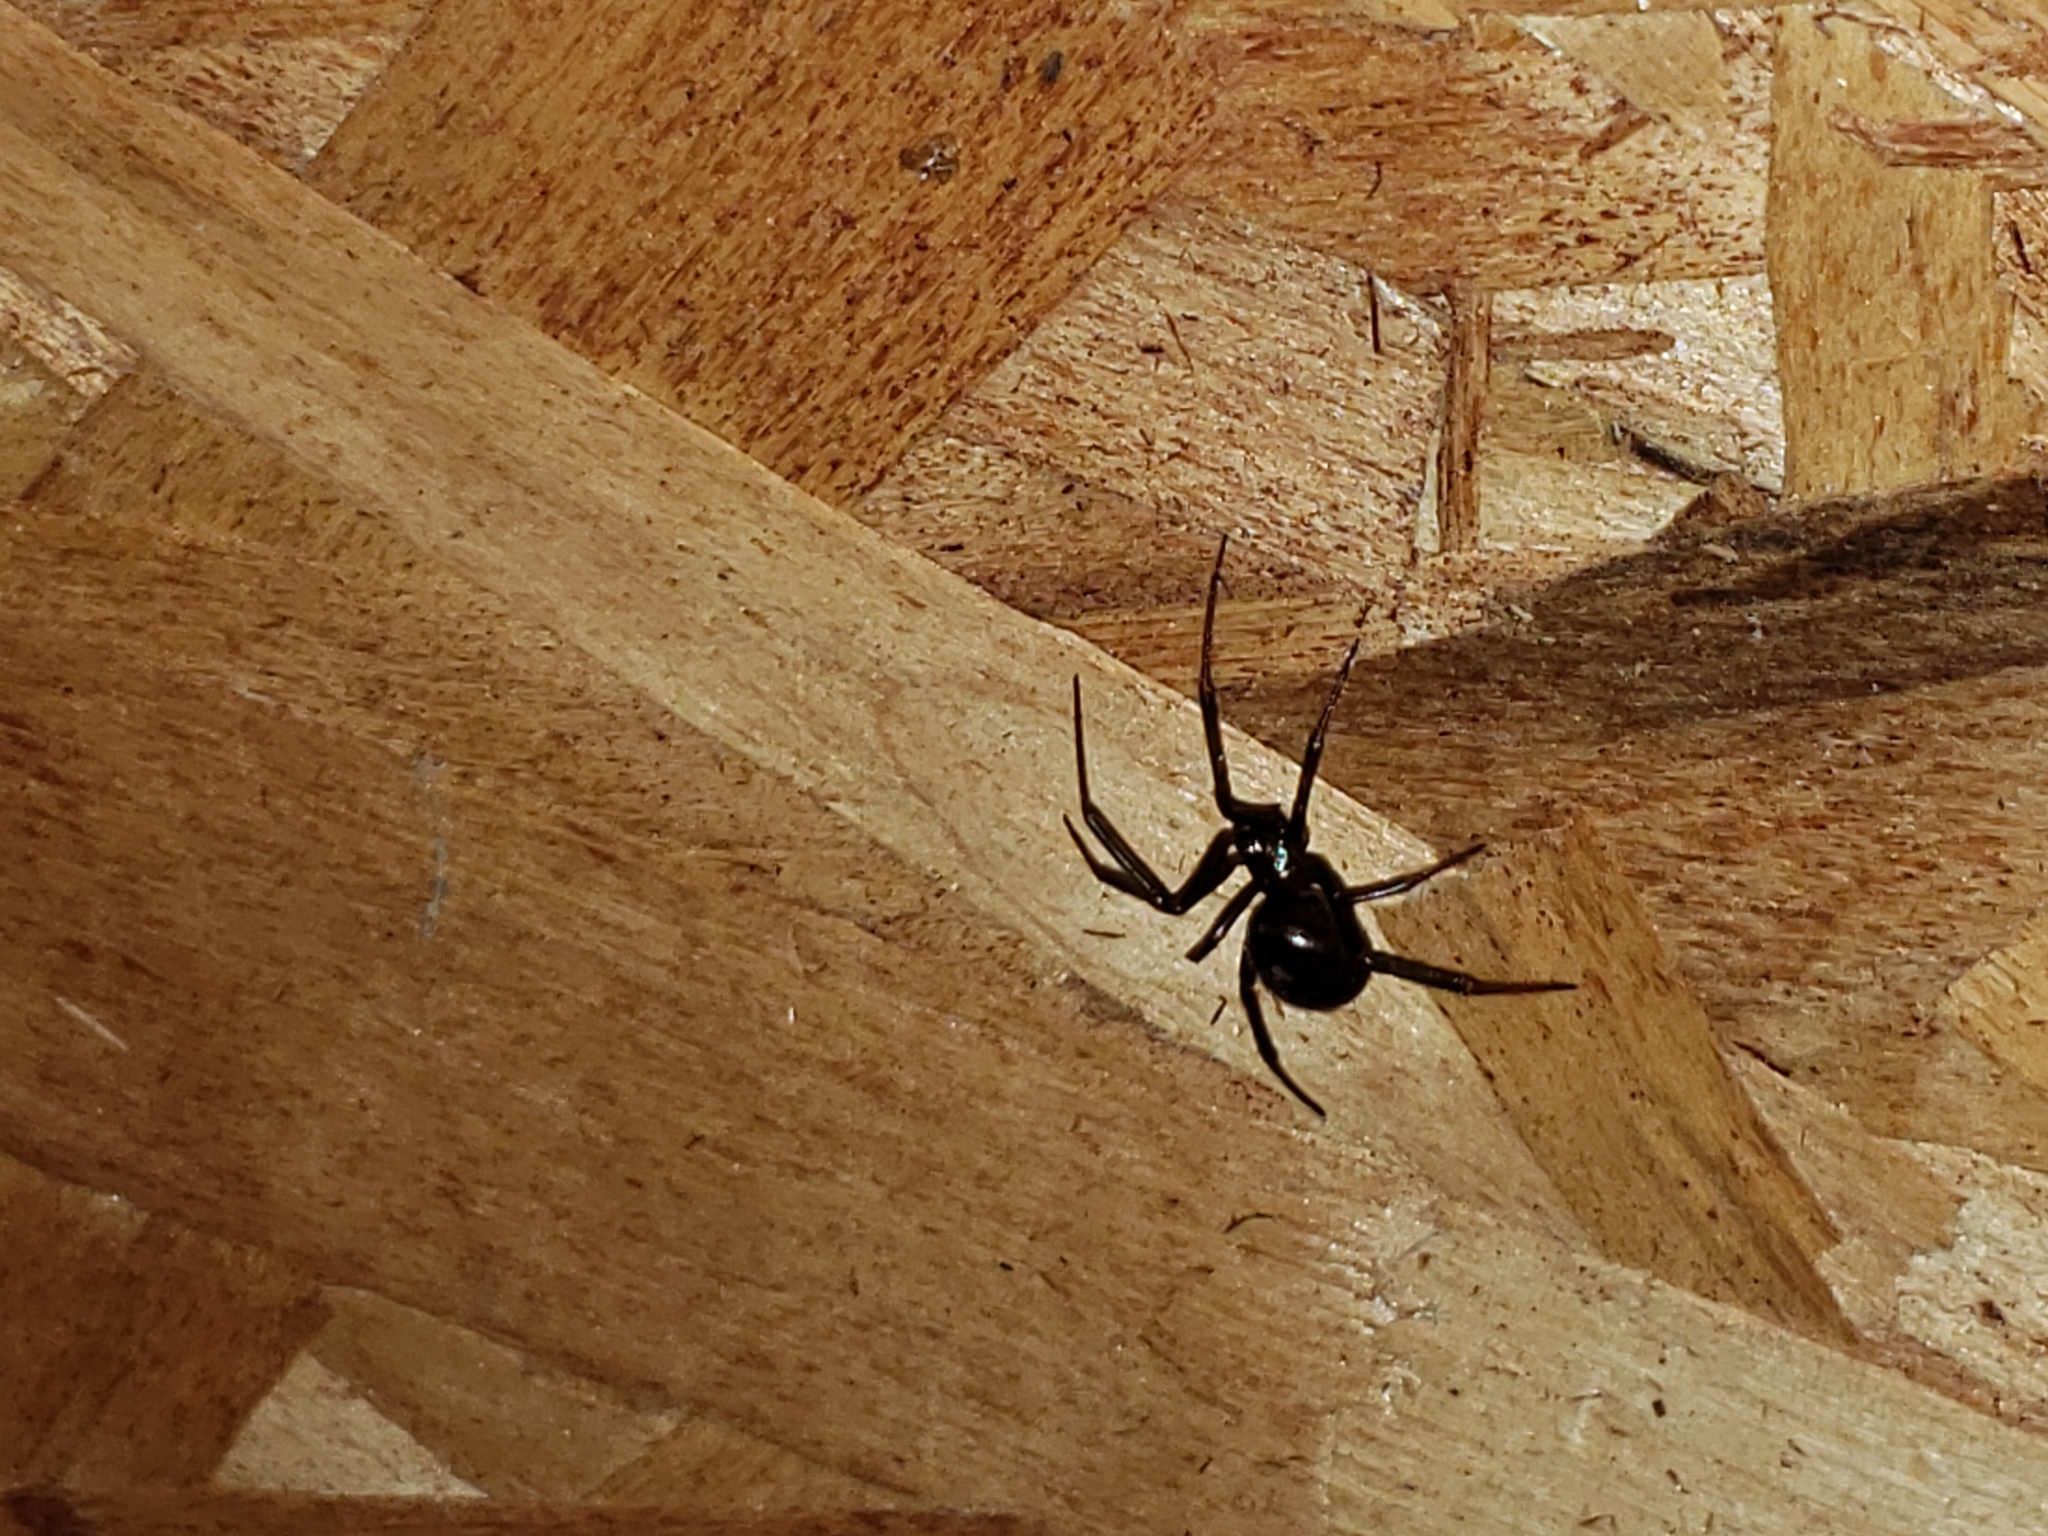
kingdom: Animalia
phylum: Arthropoda
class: Arachnida
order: Araneae
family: Theridiidae
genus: Latrodectus
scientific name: Latrodectus hesperus
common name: Western black widow
